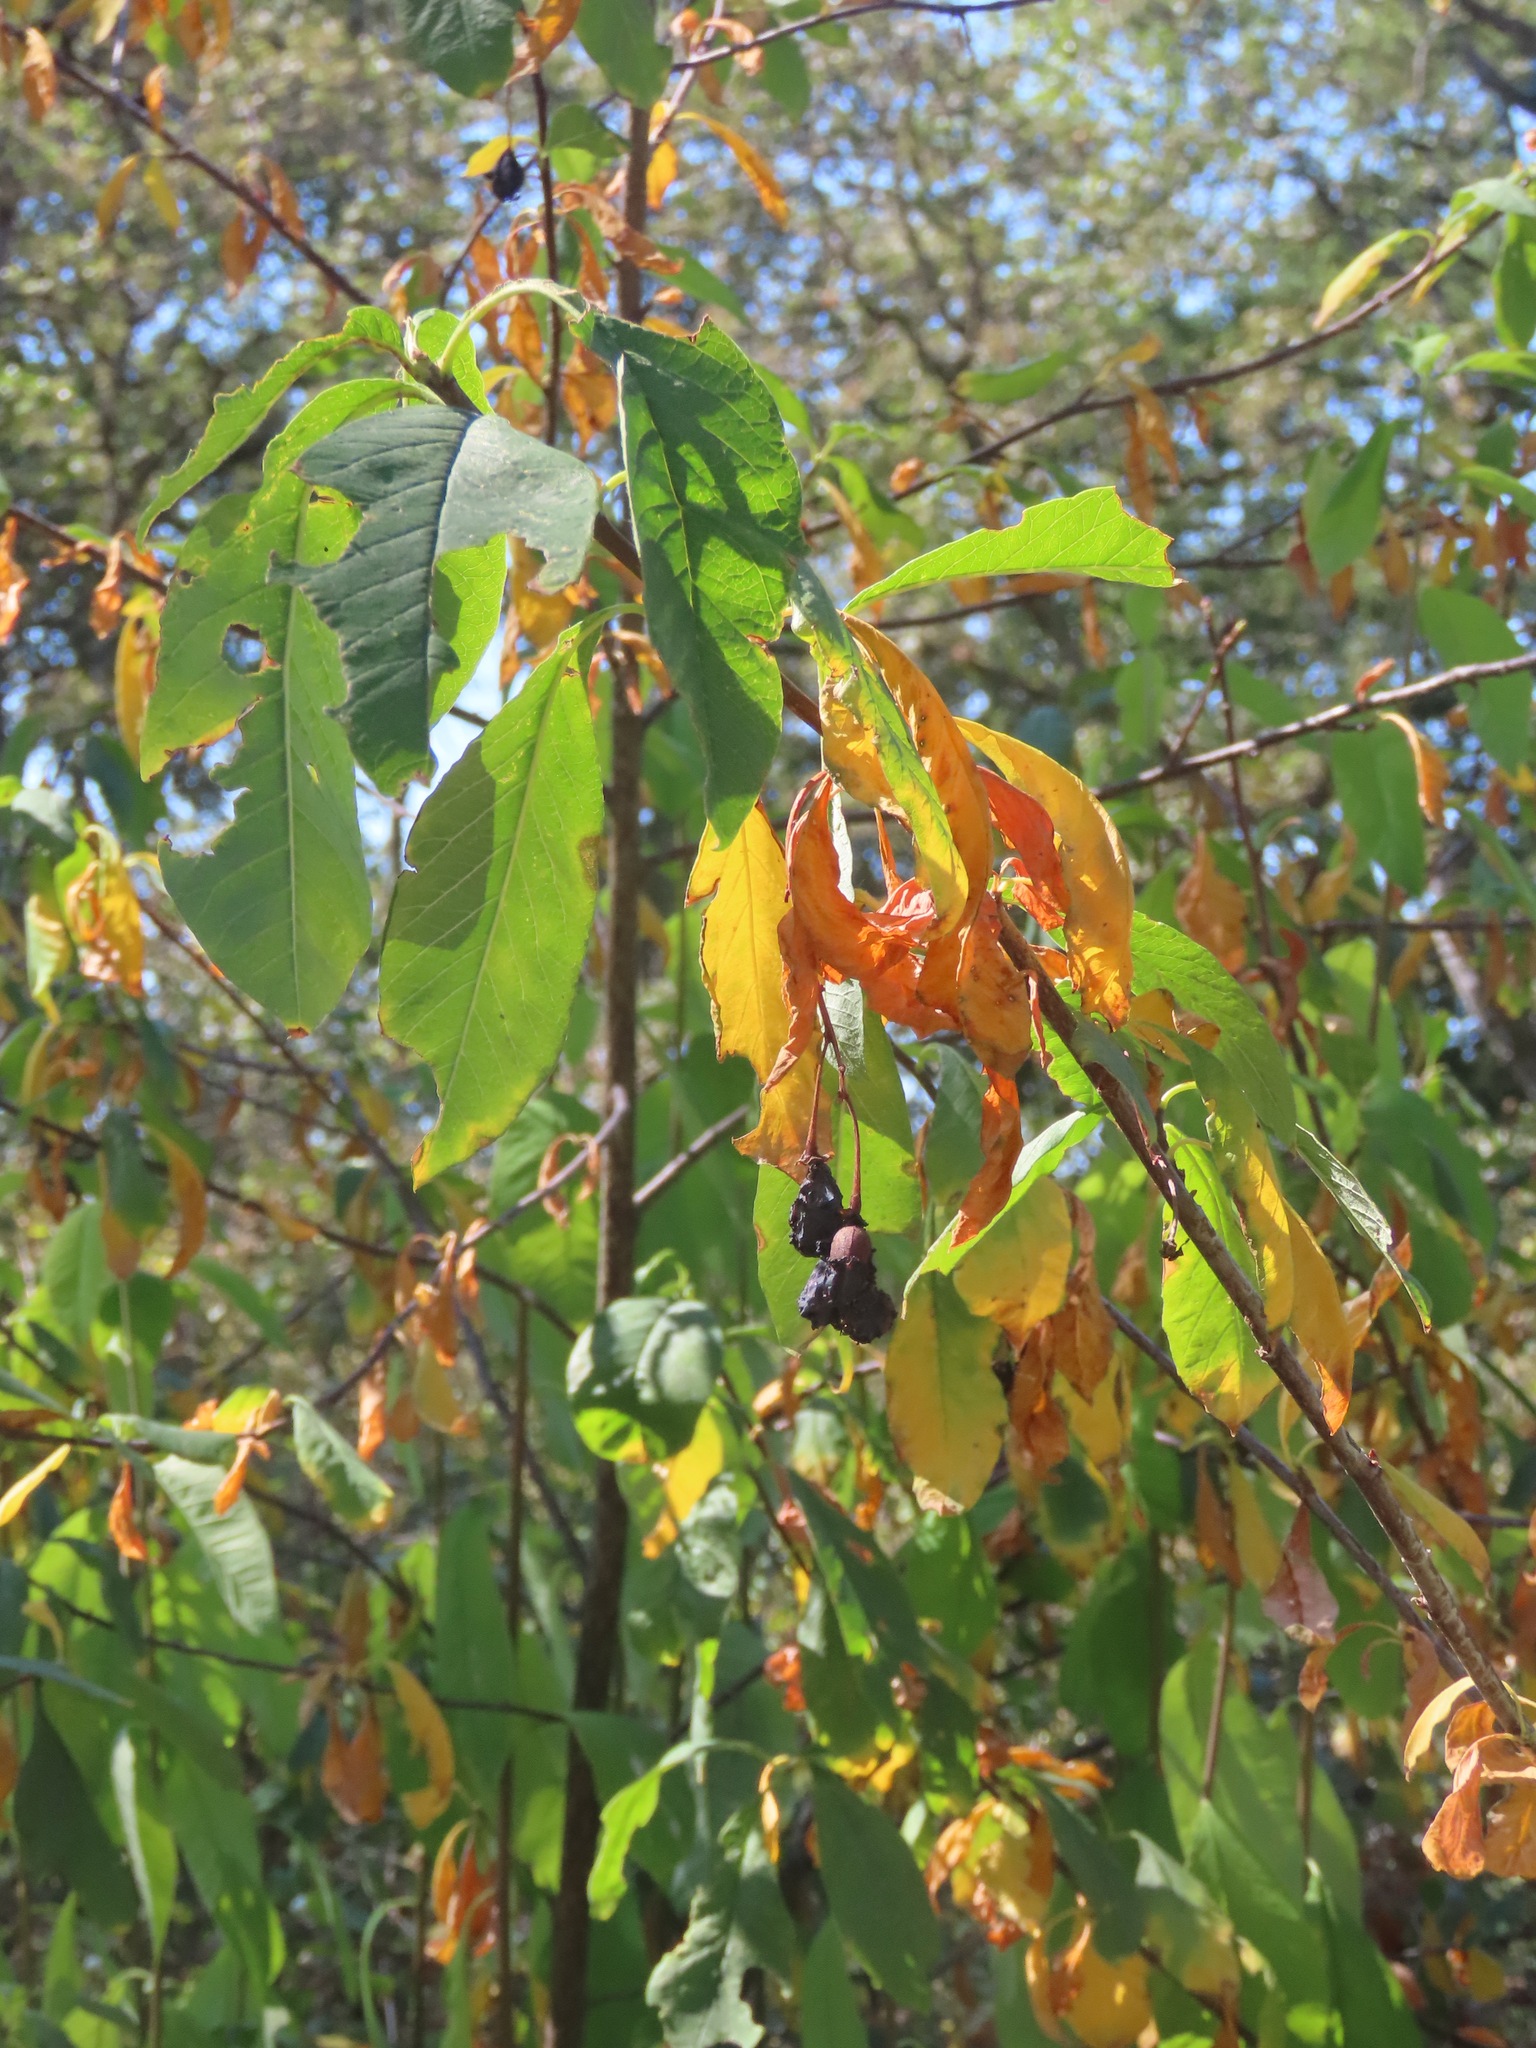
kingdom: Plantae
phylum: Tracheophyta
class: Magnoliopsida
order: Rosales
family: Rosaceae
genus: Oemleria
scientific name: Oemleria cerasiformis
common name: Osoberry
